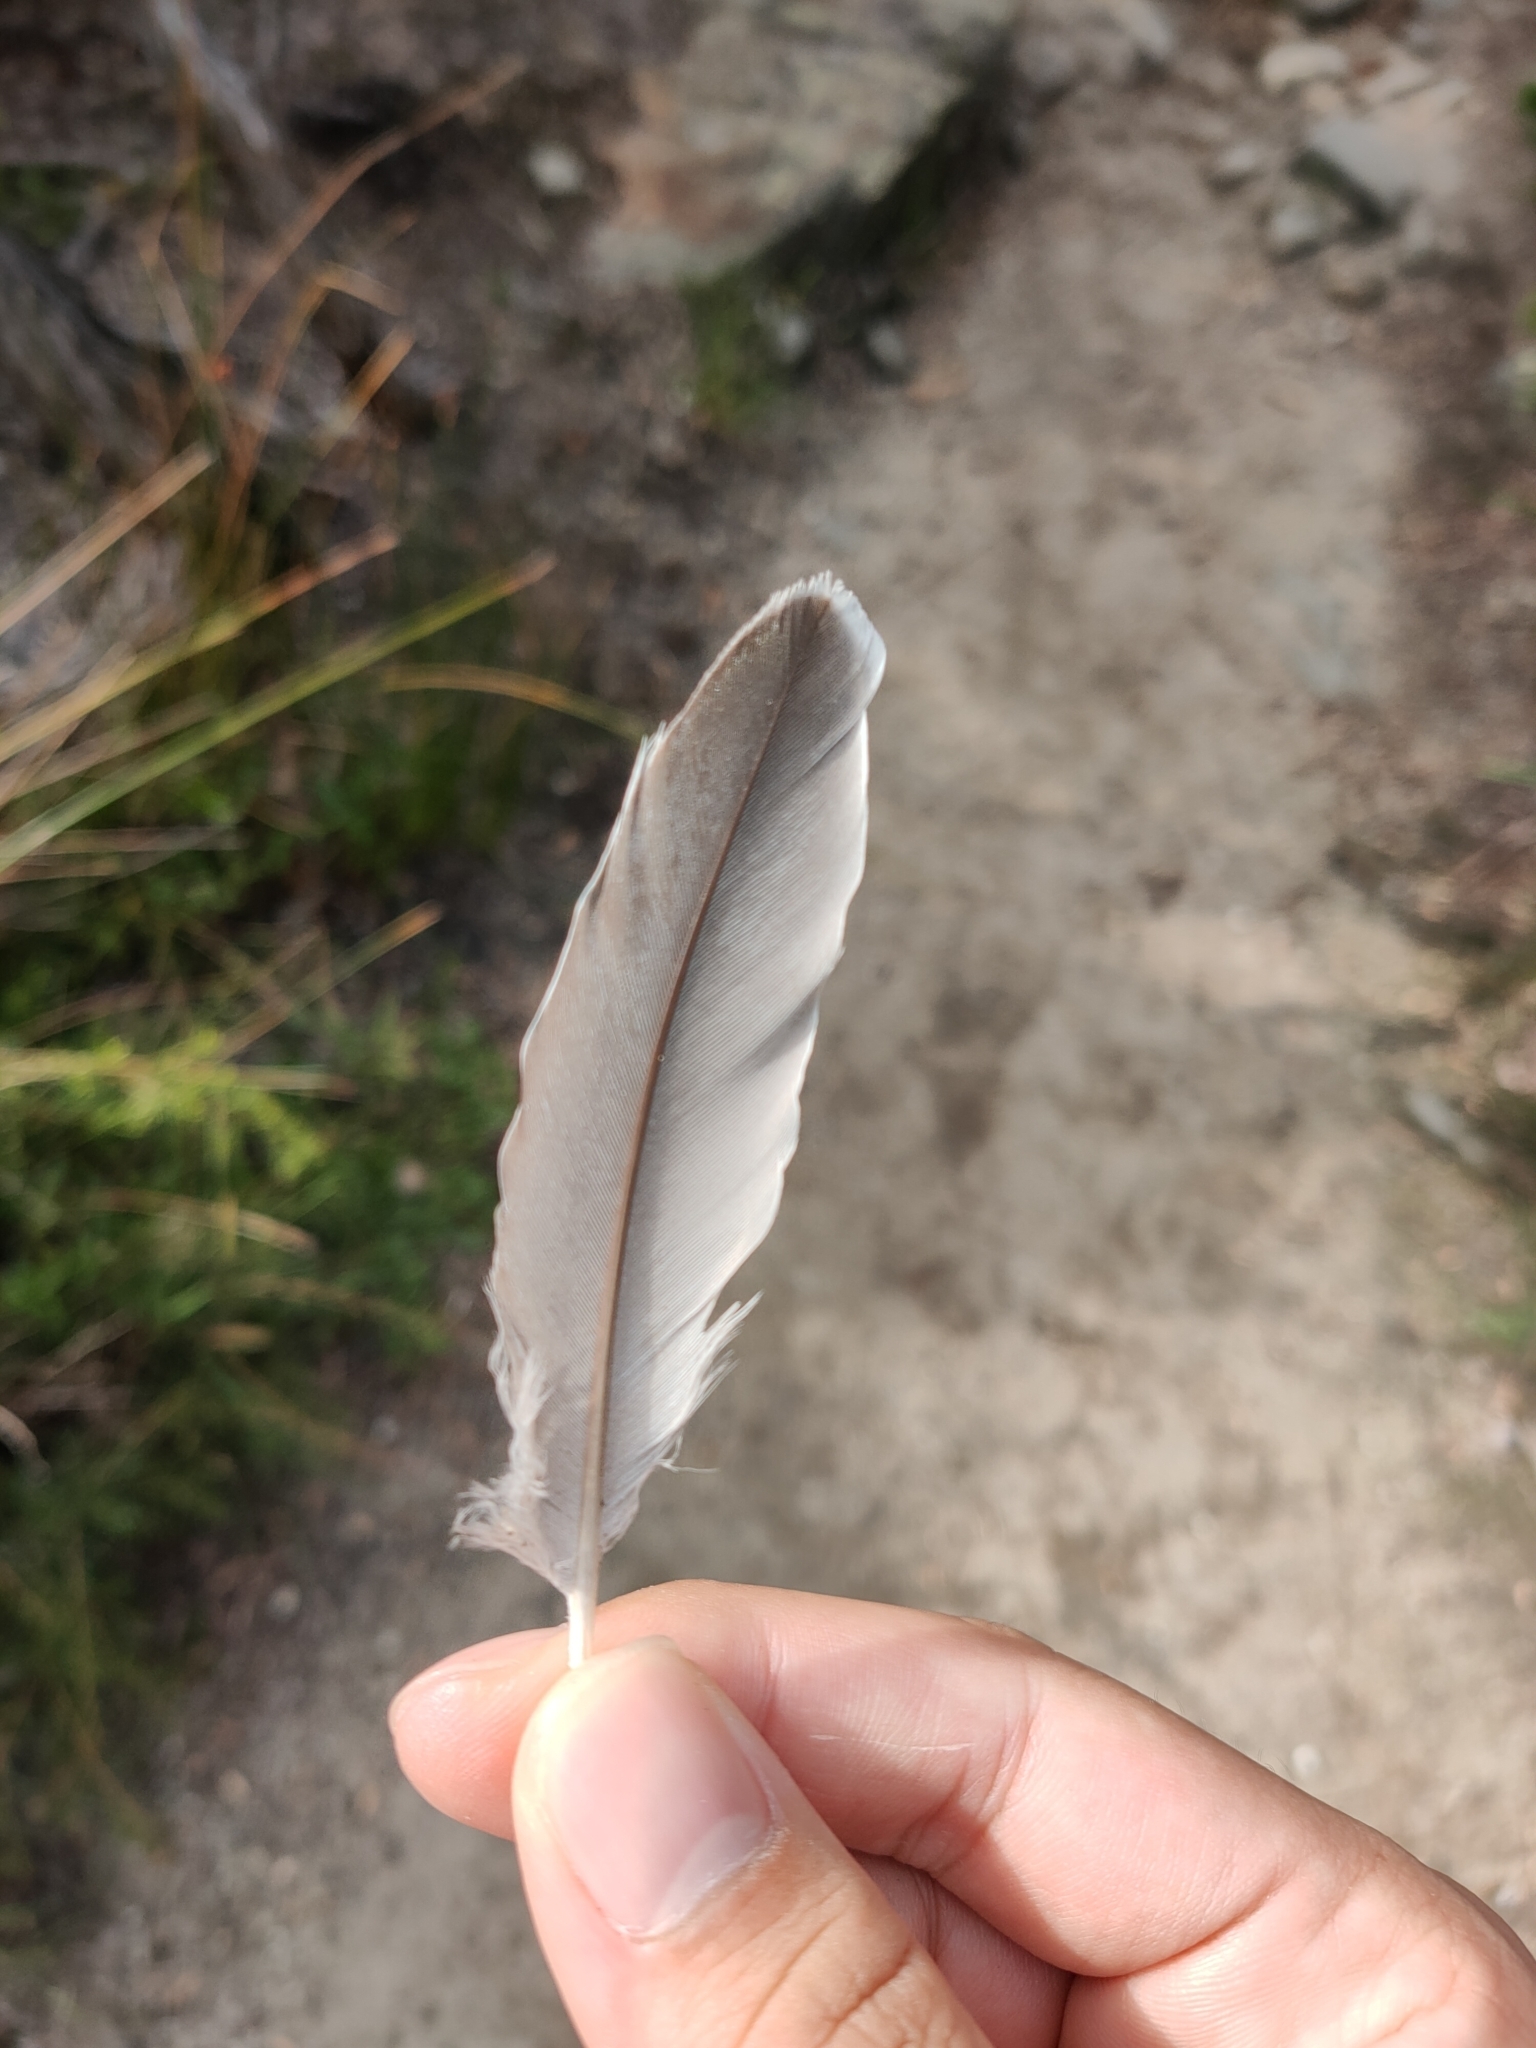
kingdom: Animalia
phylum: Chordata
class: Aves
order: Columbiformes
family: Columbidae
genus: Ocyphaps
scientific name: Ocyphaps lophotes
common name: Crested pigeon
